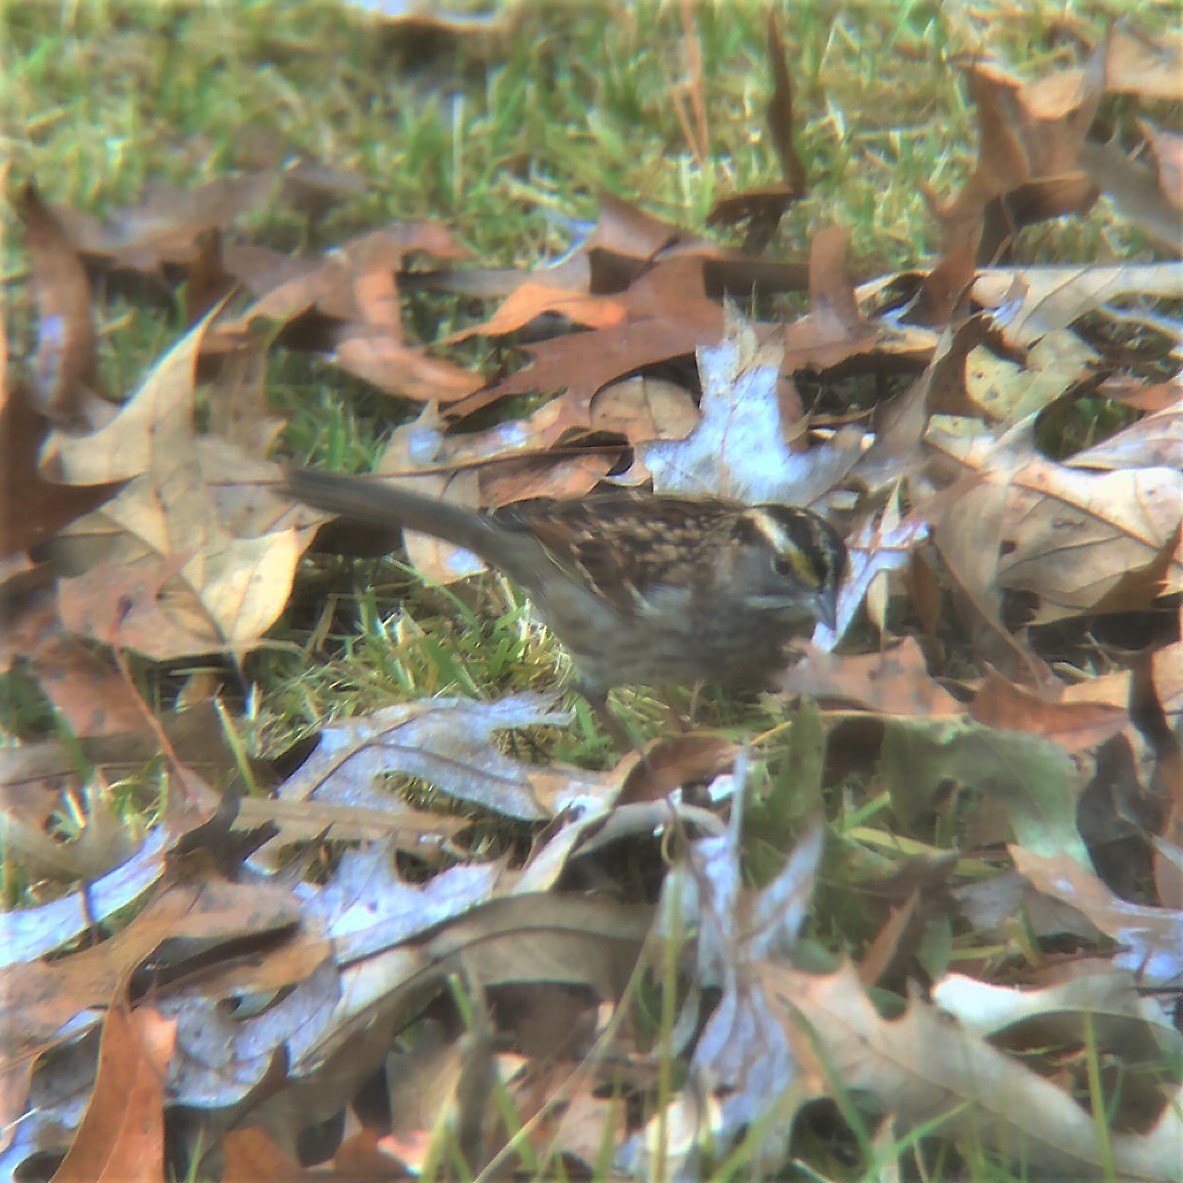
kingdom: Animalia
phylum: Chordata
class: Aves
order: Passeriformes
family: Passerellidae
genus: Zonotrichia
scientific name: Zonotrichia albicollis
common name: White-throated sparrow
